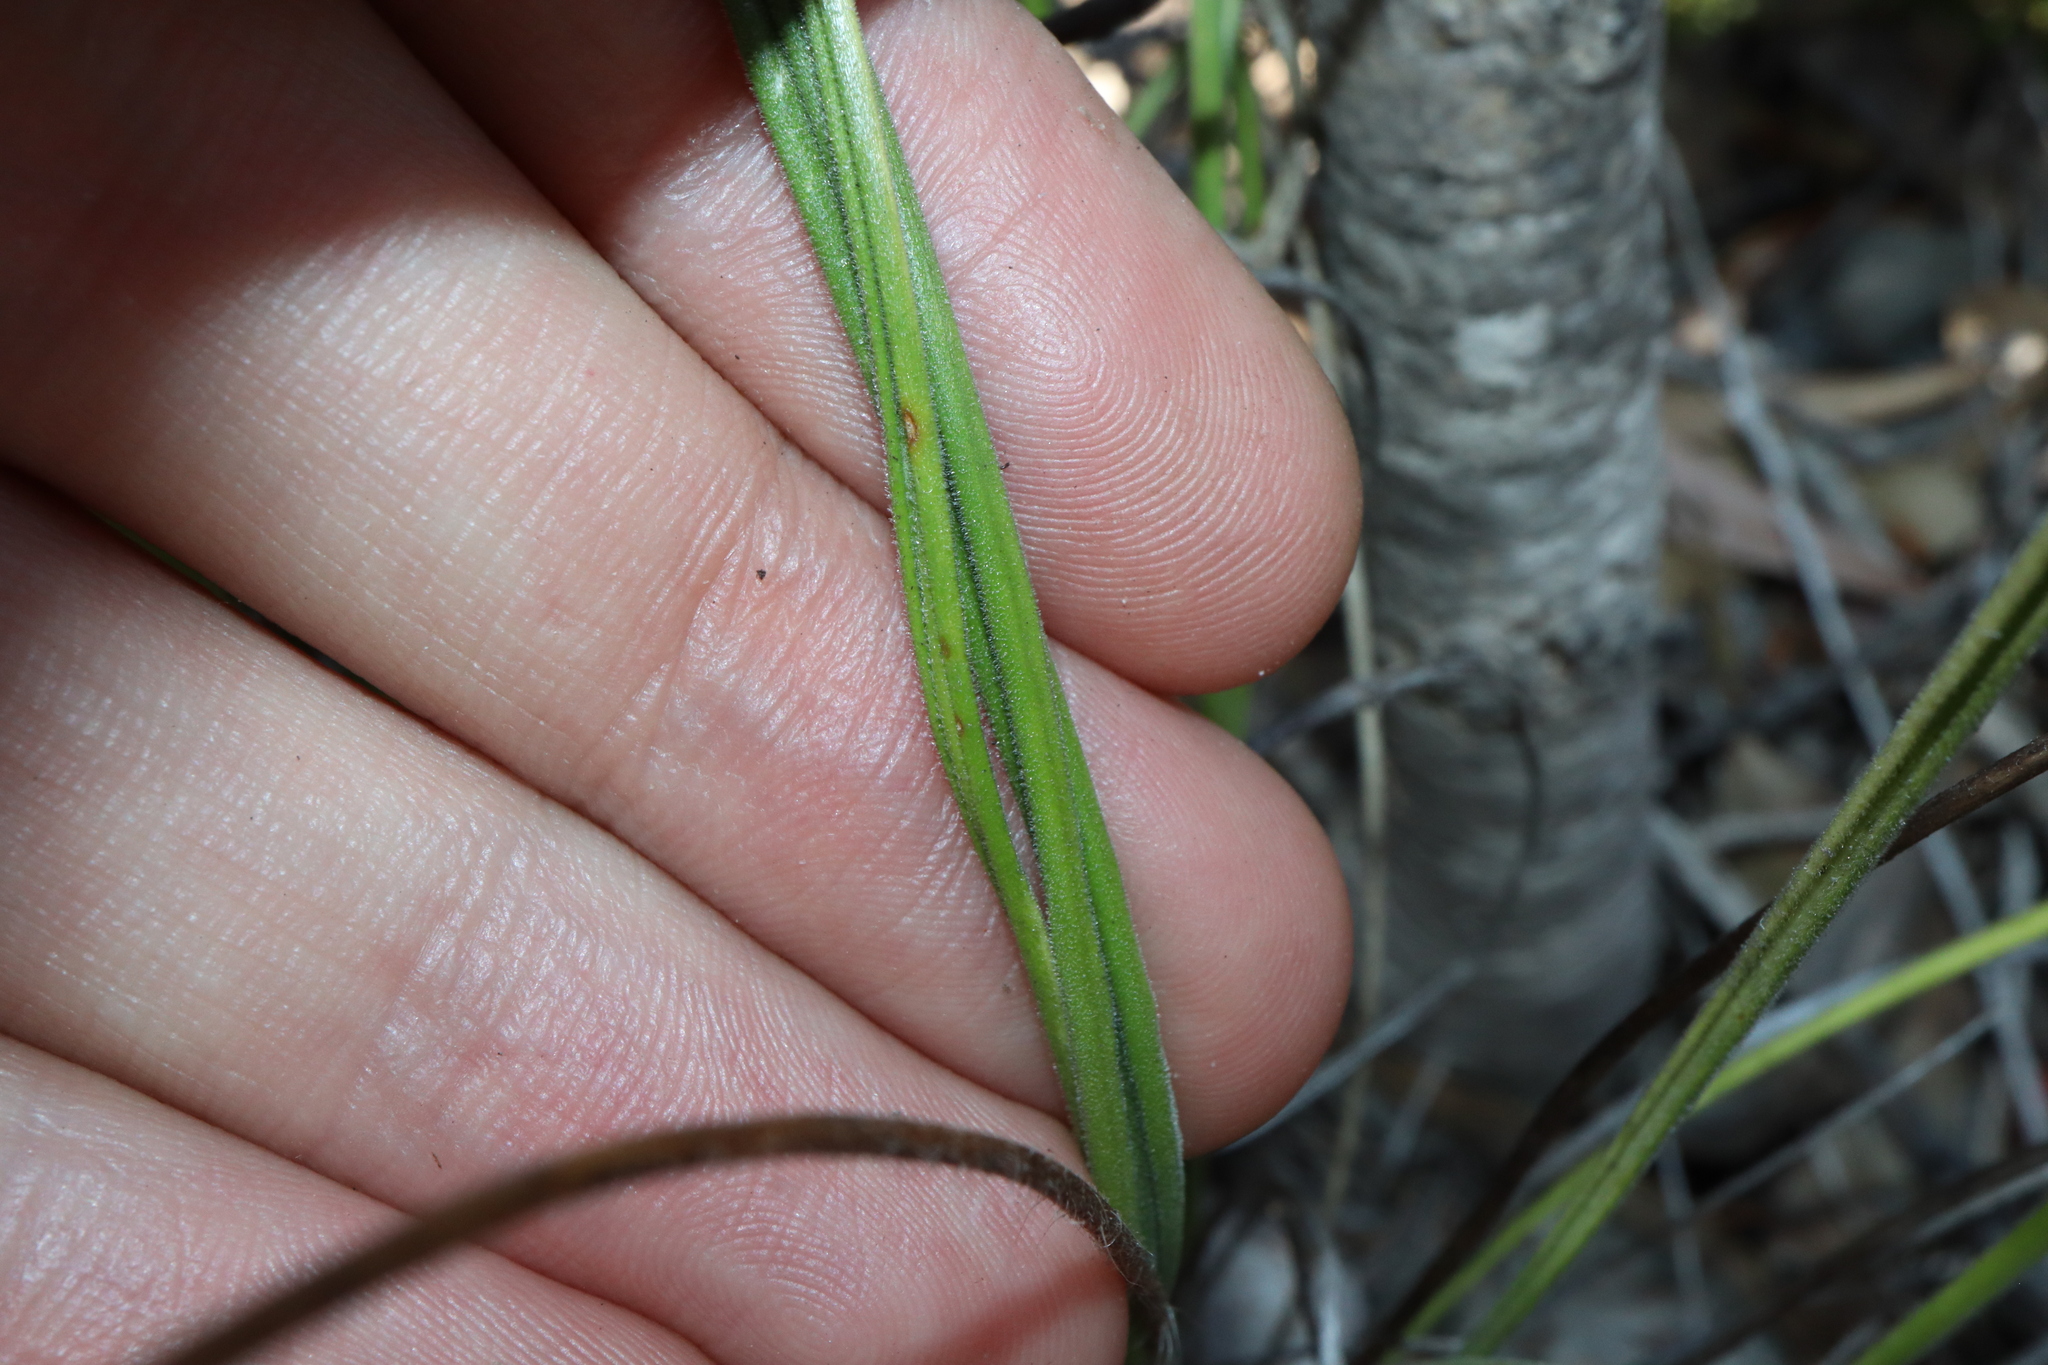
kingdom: Plantae
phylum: Tracheophyta
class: Magnoliopsida
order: Asterales
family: Stylidiaceae
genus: Stylidium
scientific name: Stylidium albomontis
